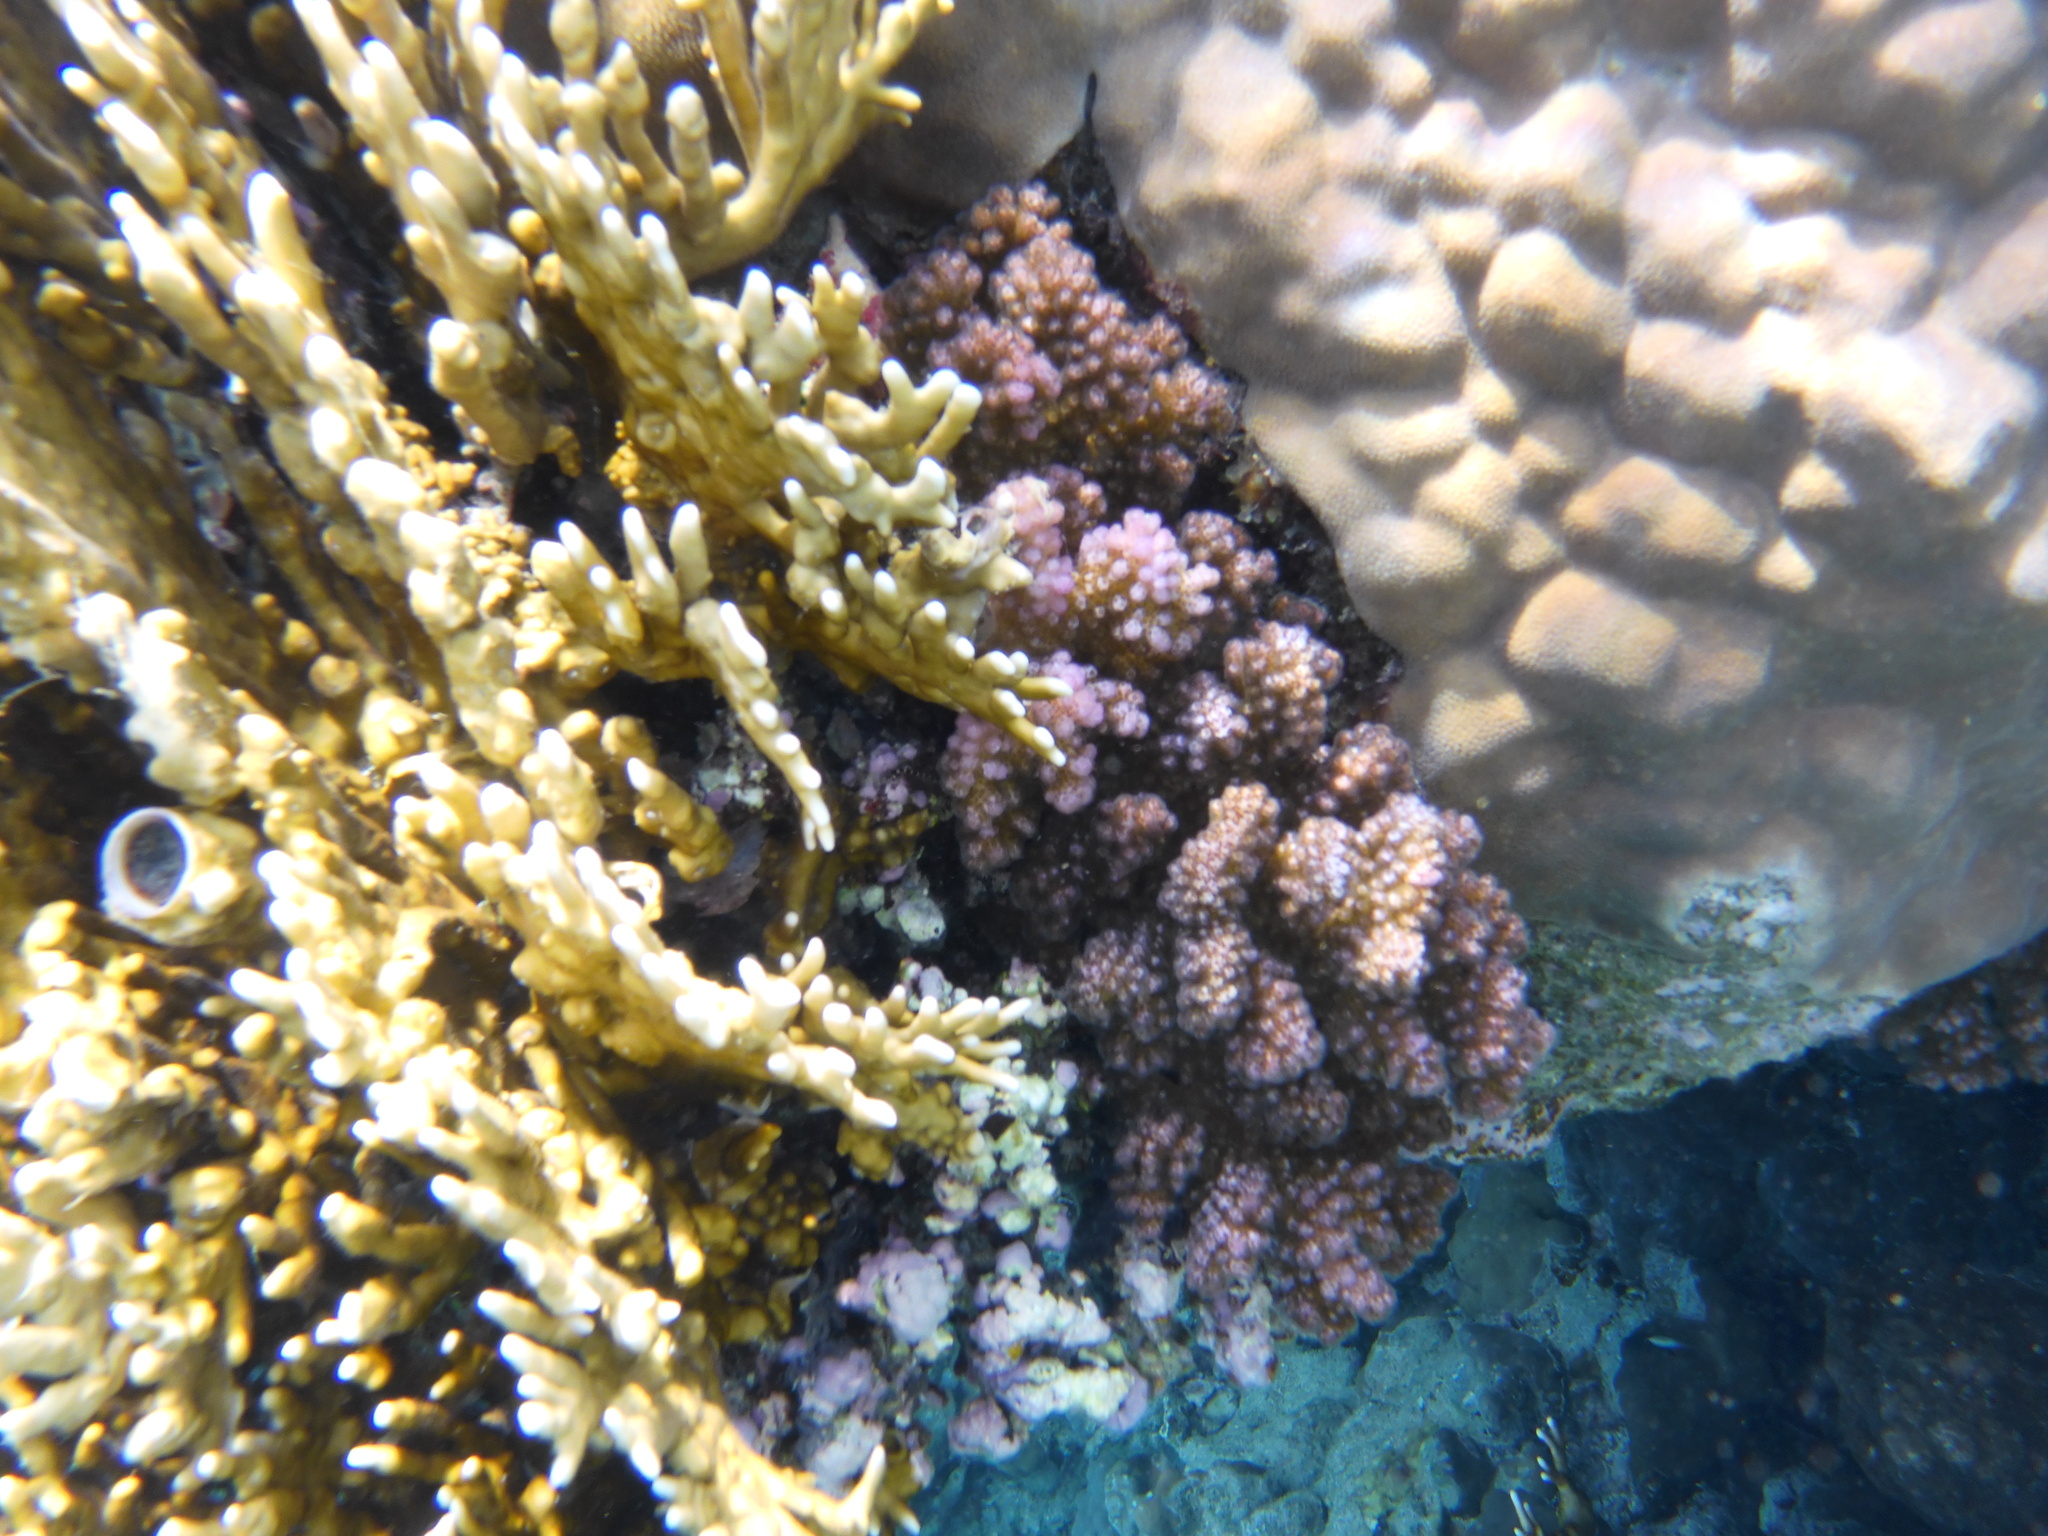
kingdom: Animalia
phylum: Cnidaria
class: Anthozoa
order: Scleractinia
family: Pocilloporidae
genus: Pocillopora
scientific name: Pocillopora verrucosa
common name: Cauliflower coral
